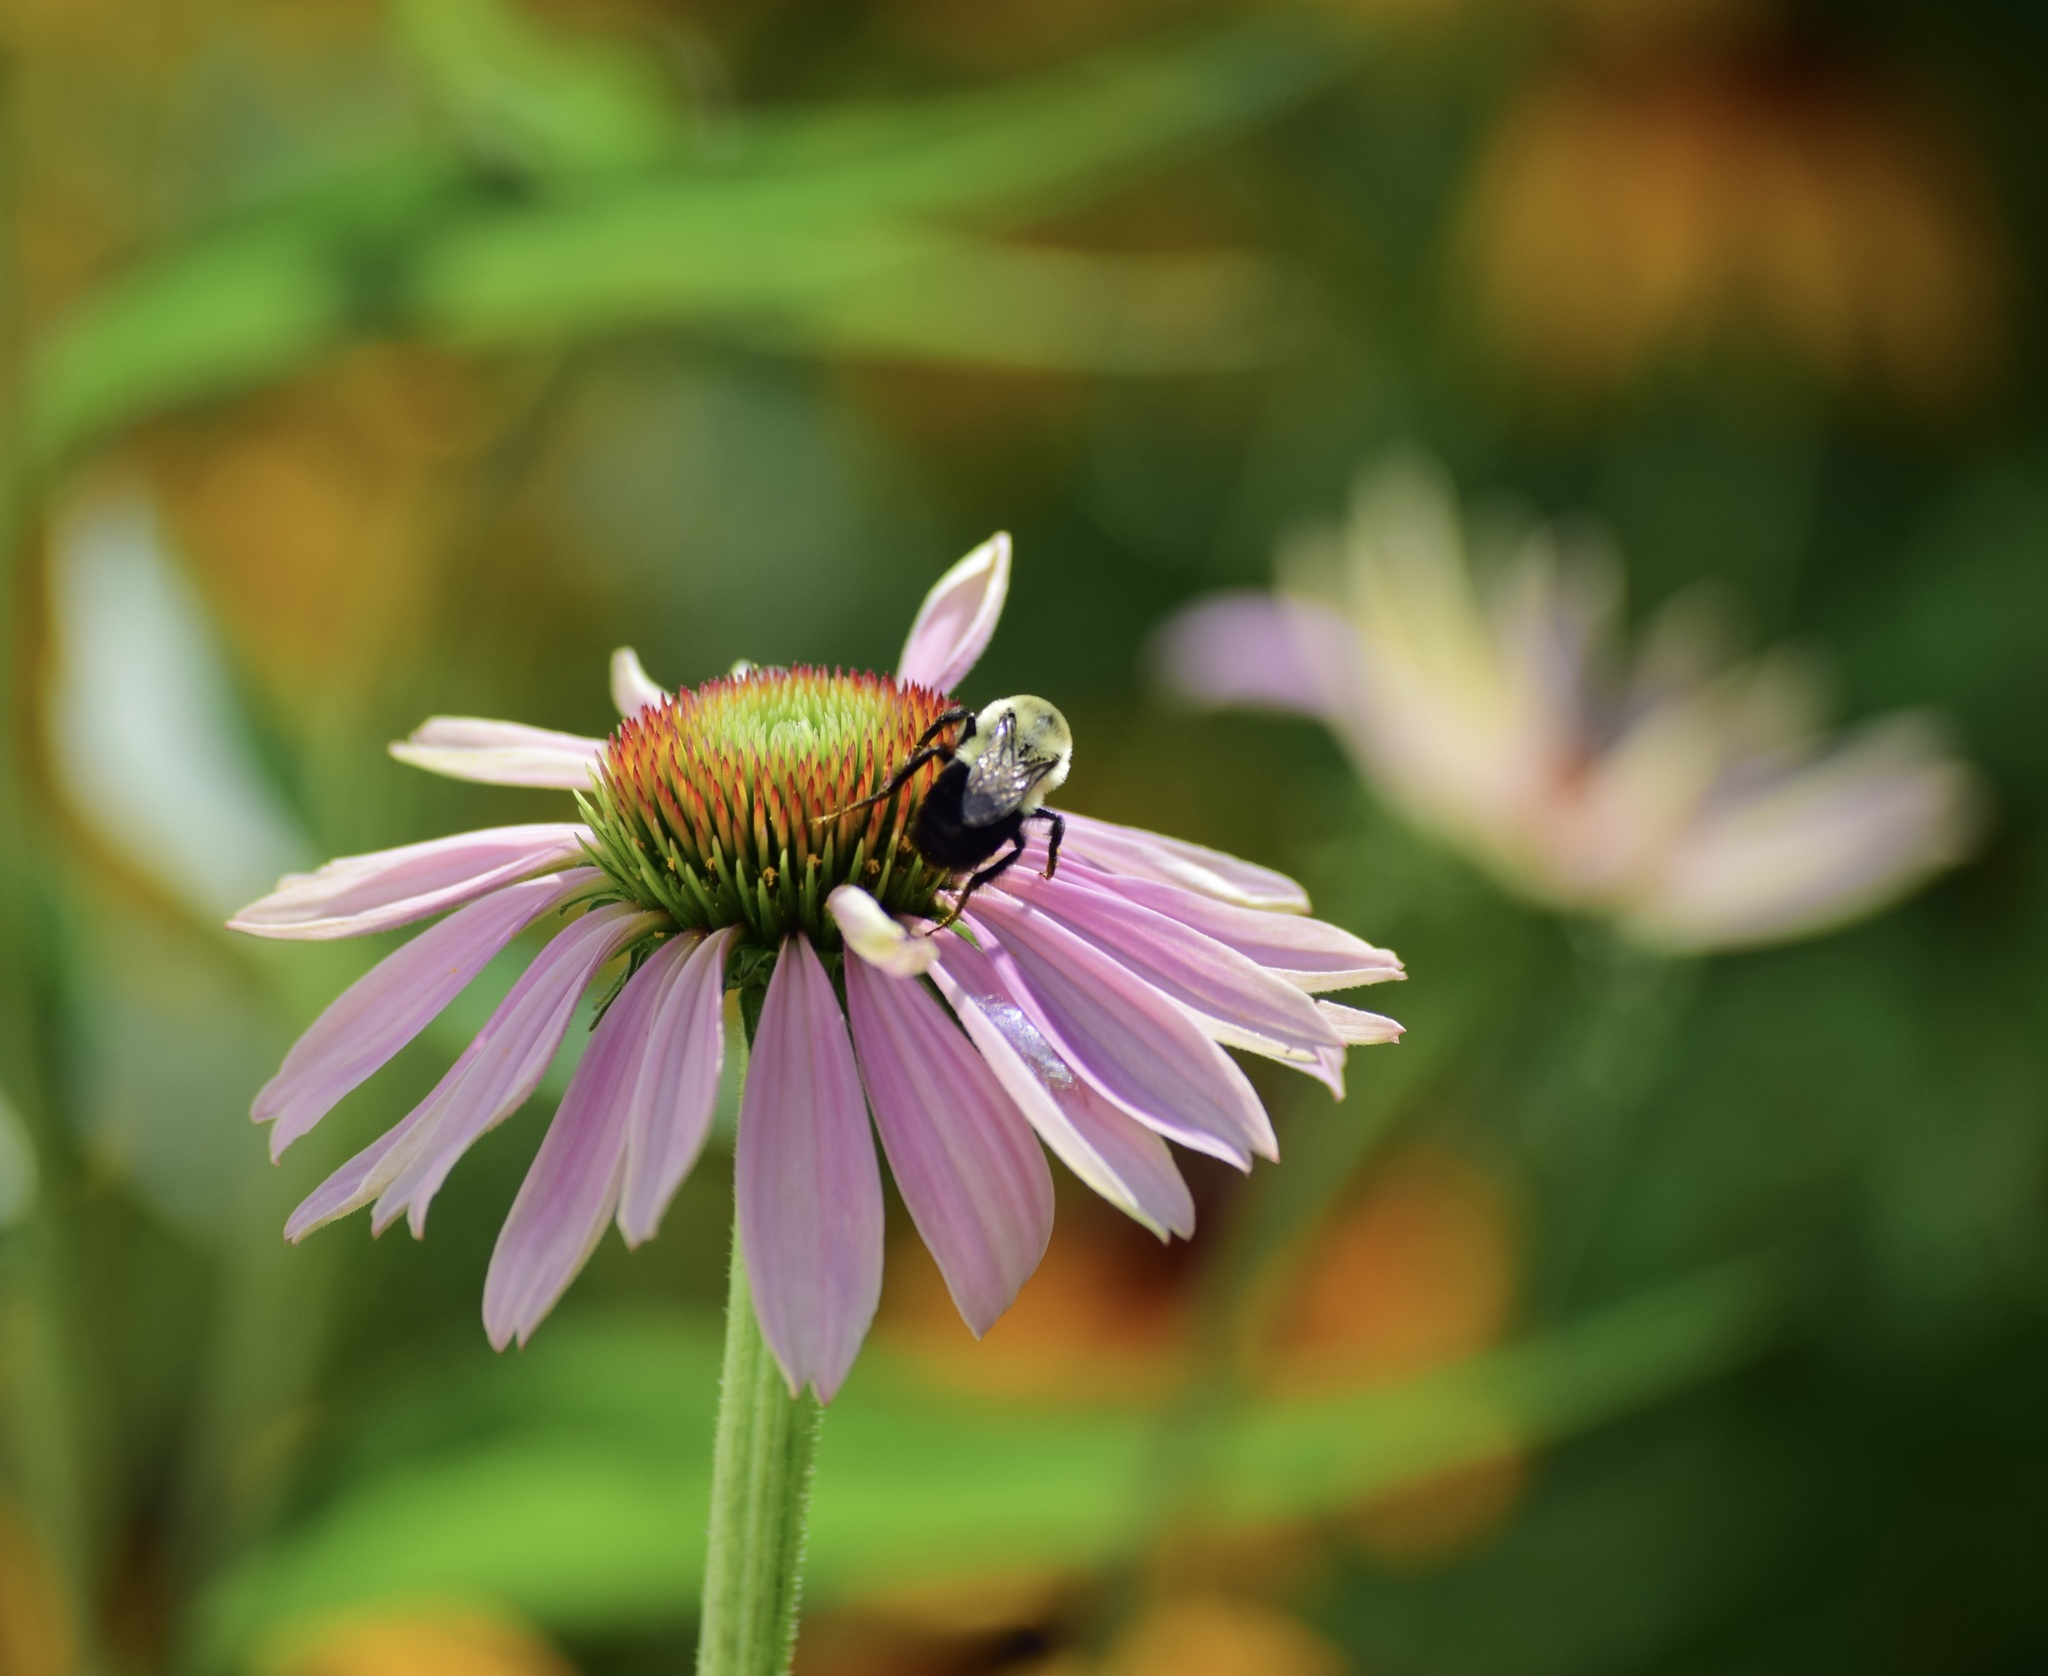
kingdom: Animalia
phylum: Arthropoda
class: Insecta
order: Hymenoptera
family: Apidae
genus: Bombus
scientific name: Bombus impatiens
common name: Common eastern bumble bee
